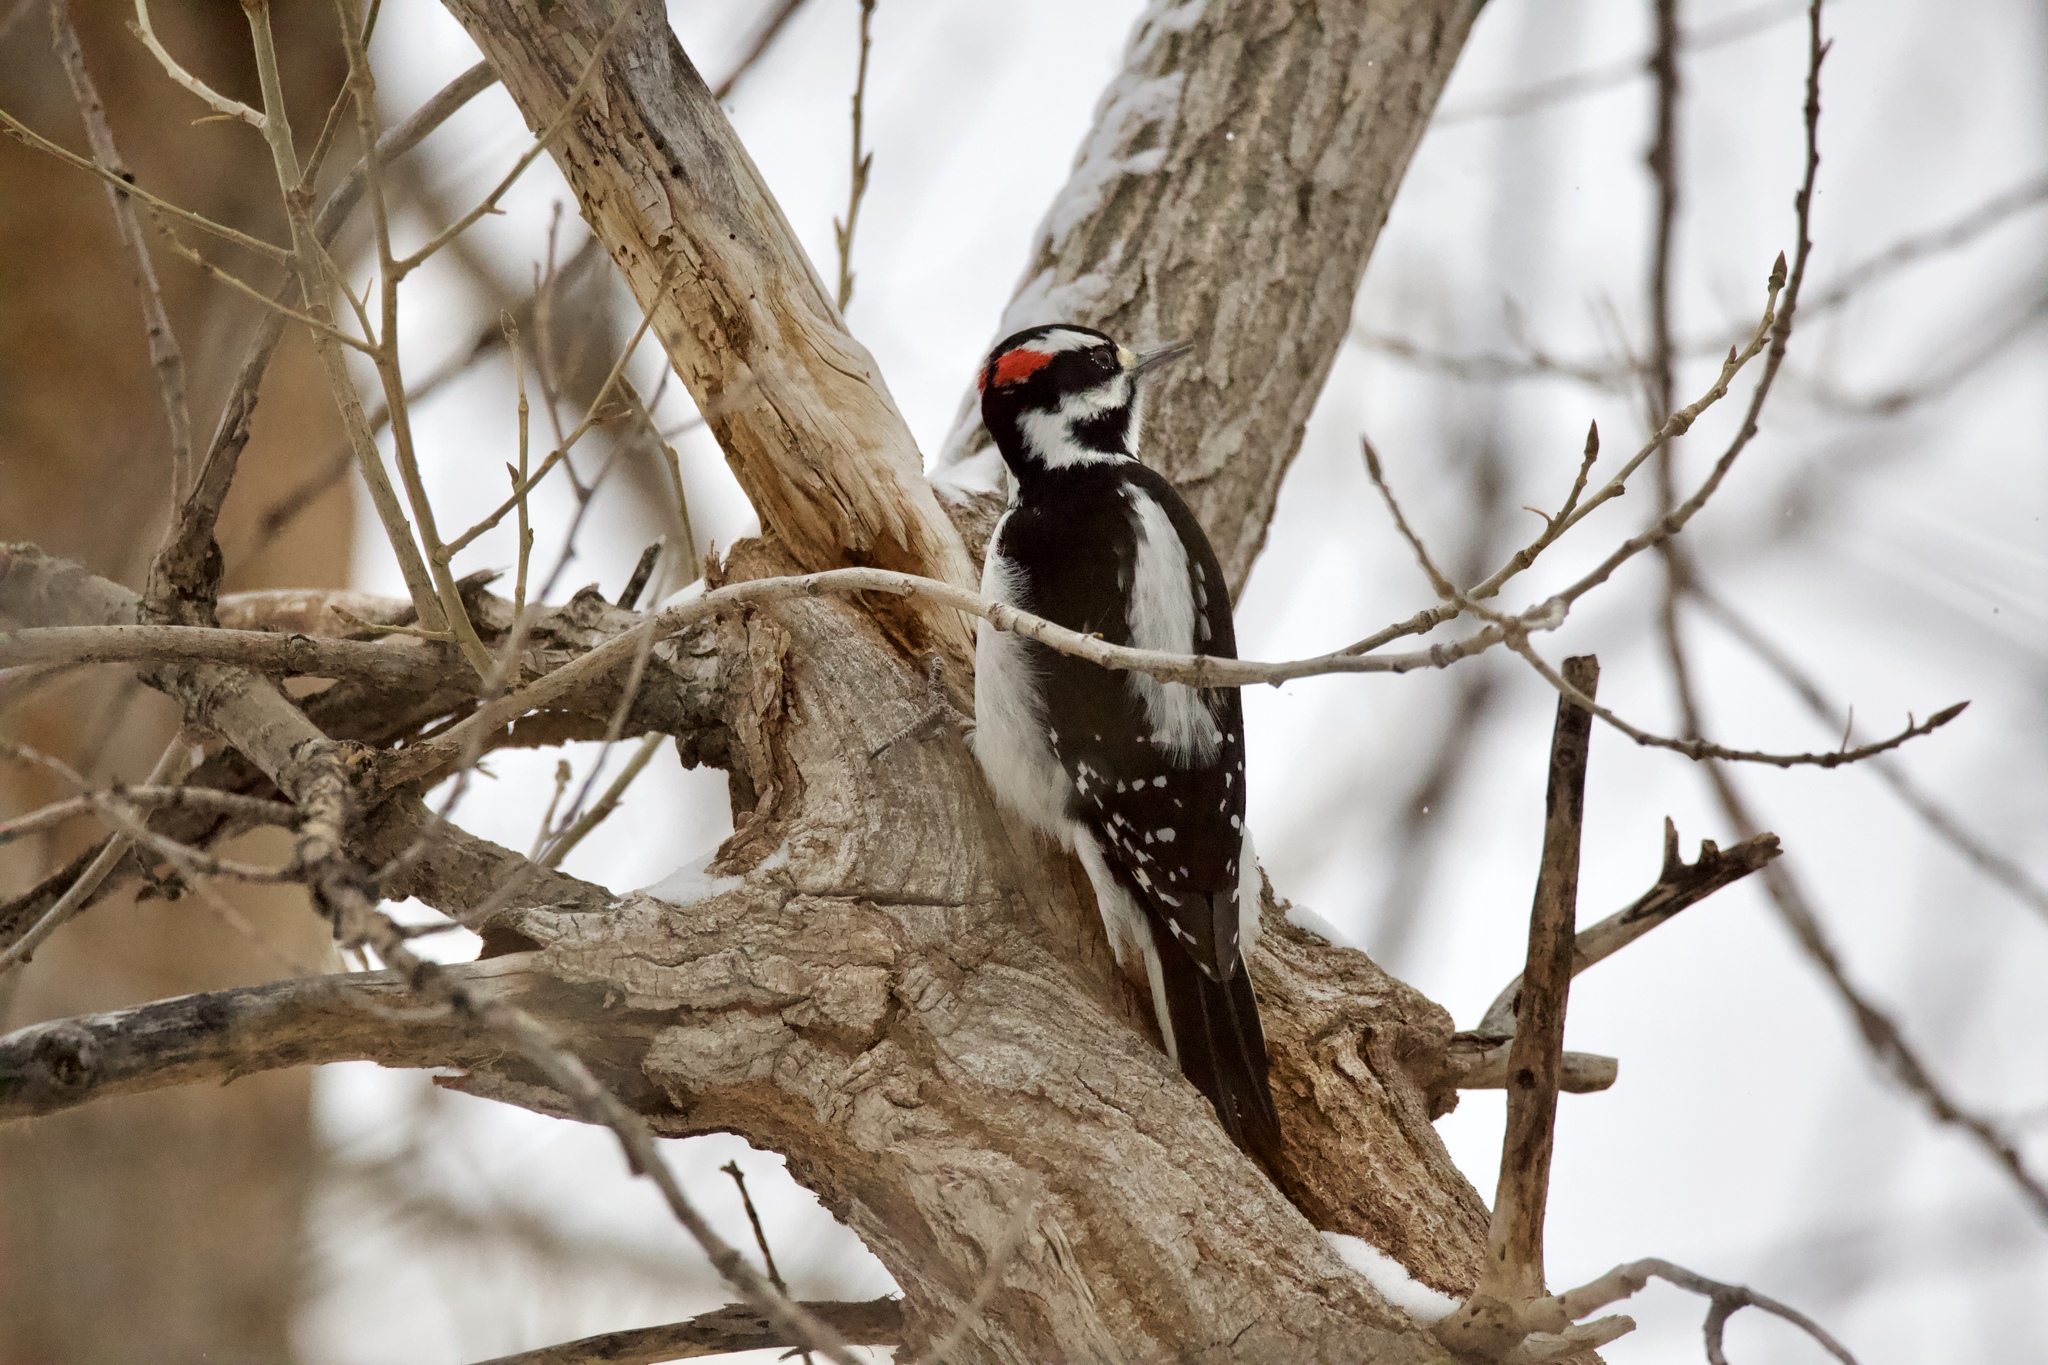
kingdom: Animalia
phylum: Chordata
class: Aves
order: Piciformes
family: Picidae
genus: Leuconotopicus
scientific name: Leuconotopicus villosus
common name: Hairy woodpecker
